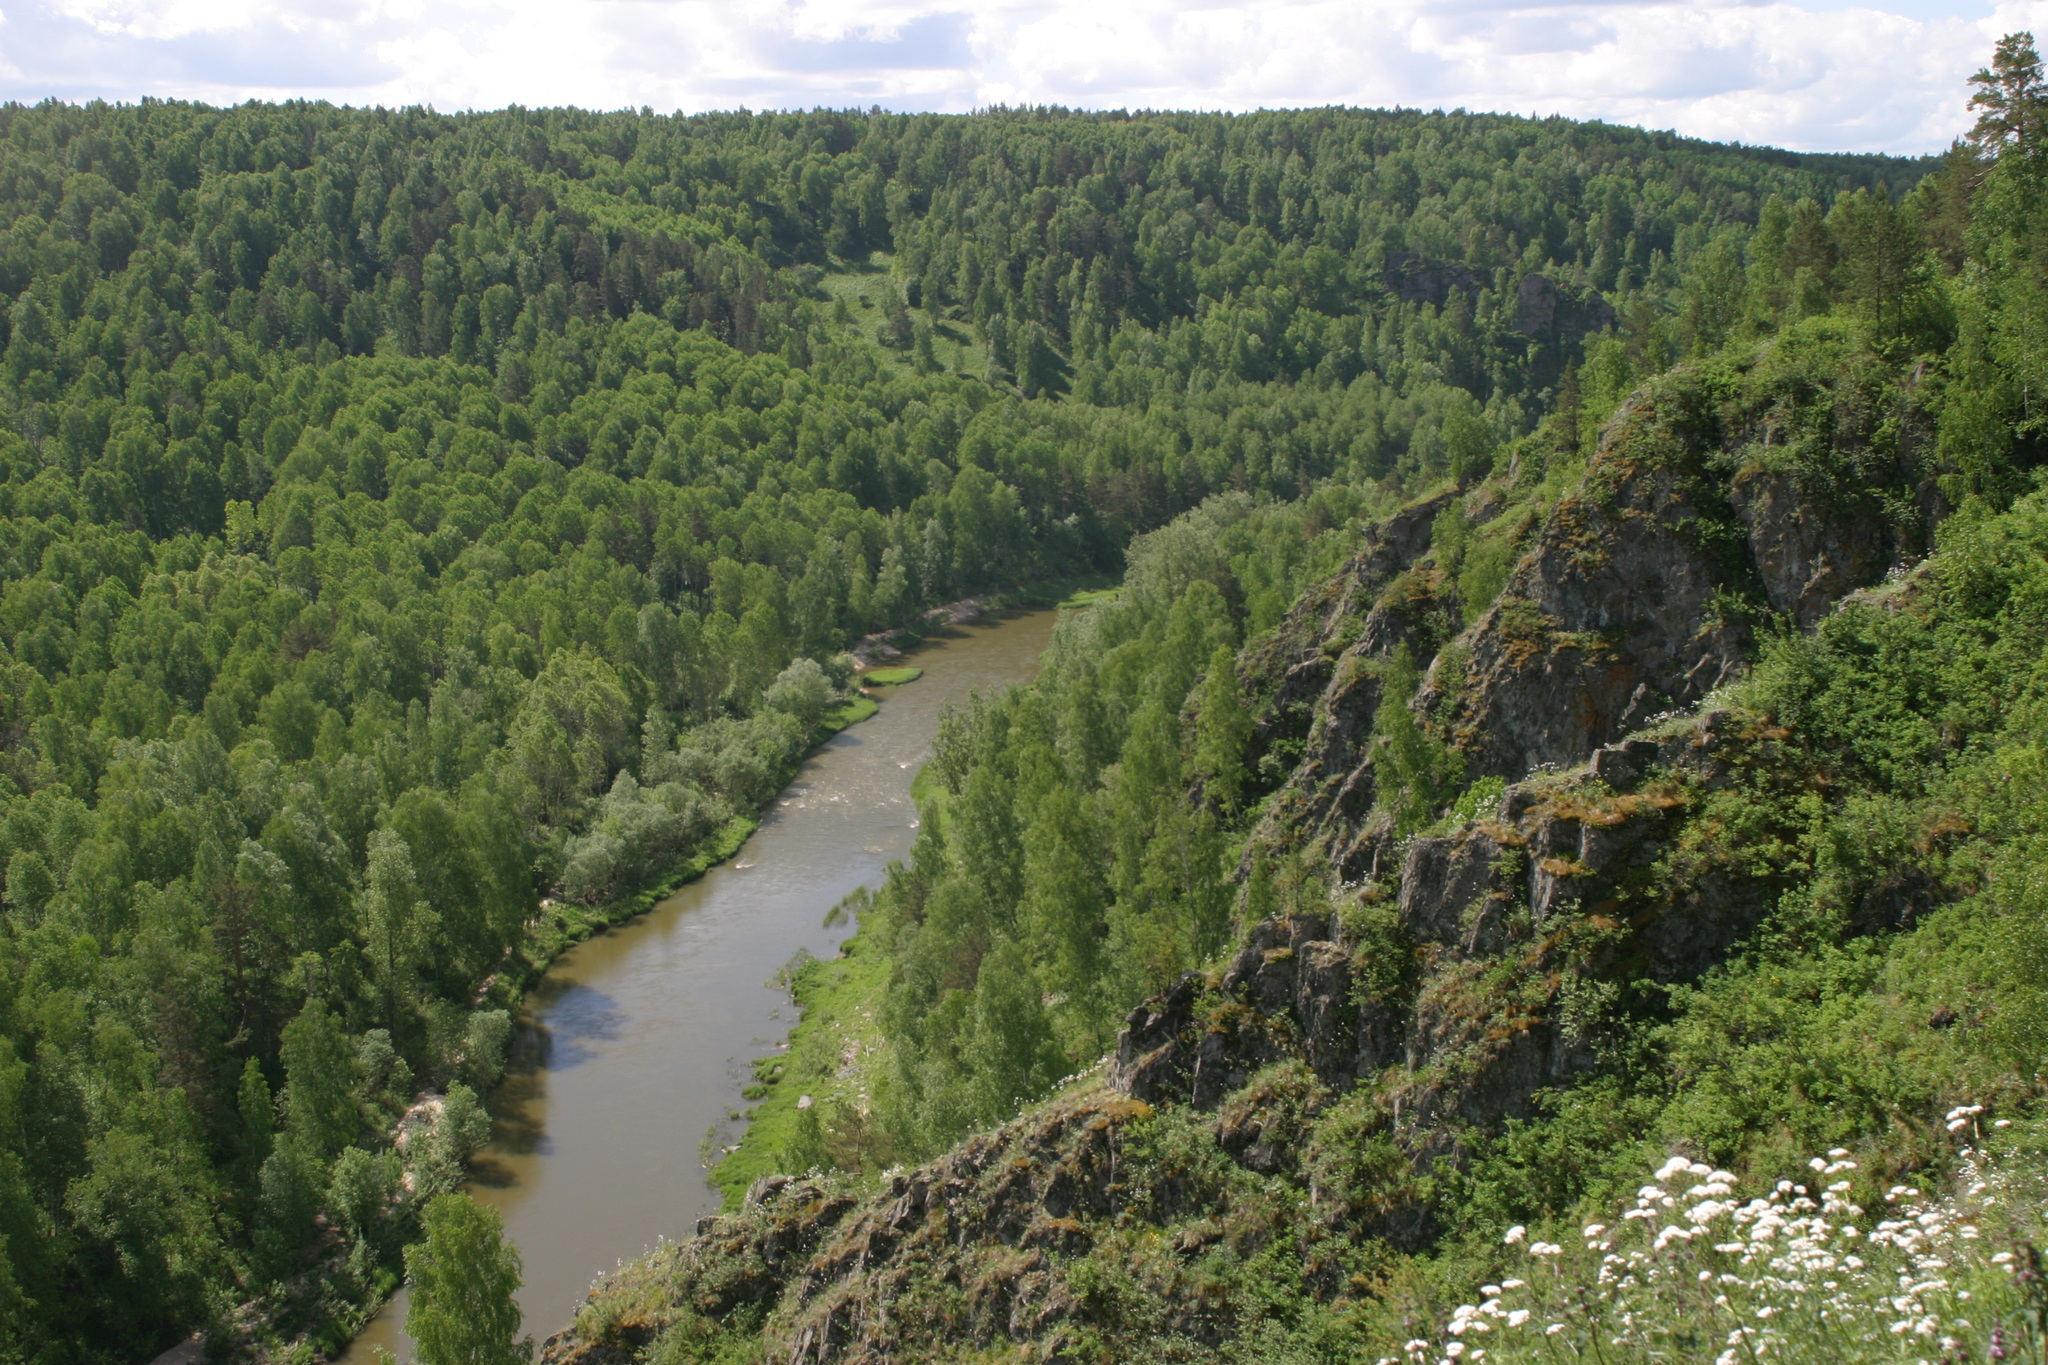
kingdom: Plantae
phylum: Tracheophyta
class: Magnoliopsida
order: Dipsacales
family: Caprifoliaceae
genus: Valeriana
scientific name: Valeriana rossica
